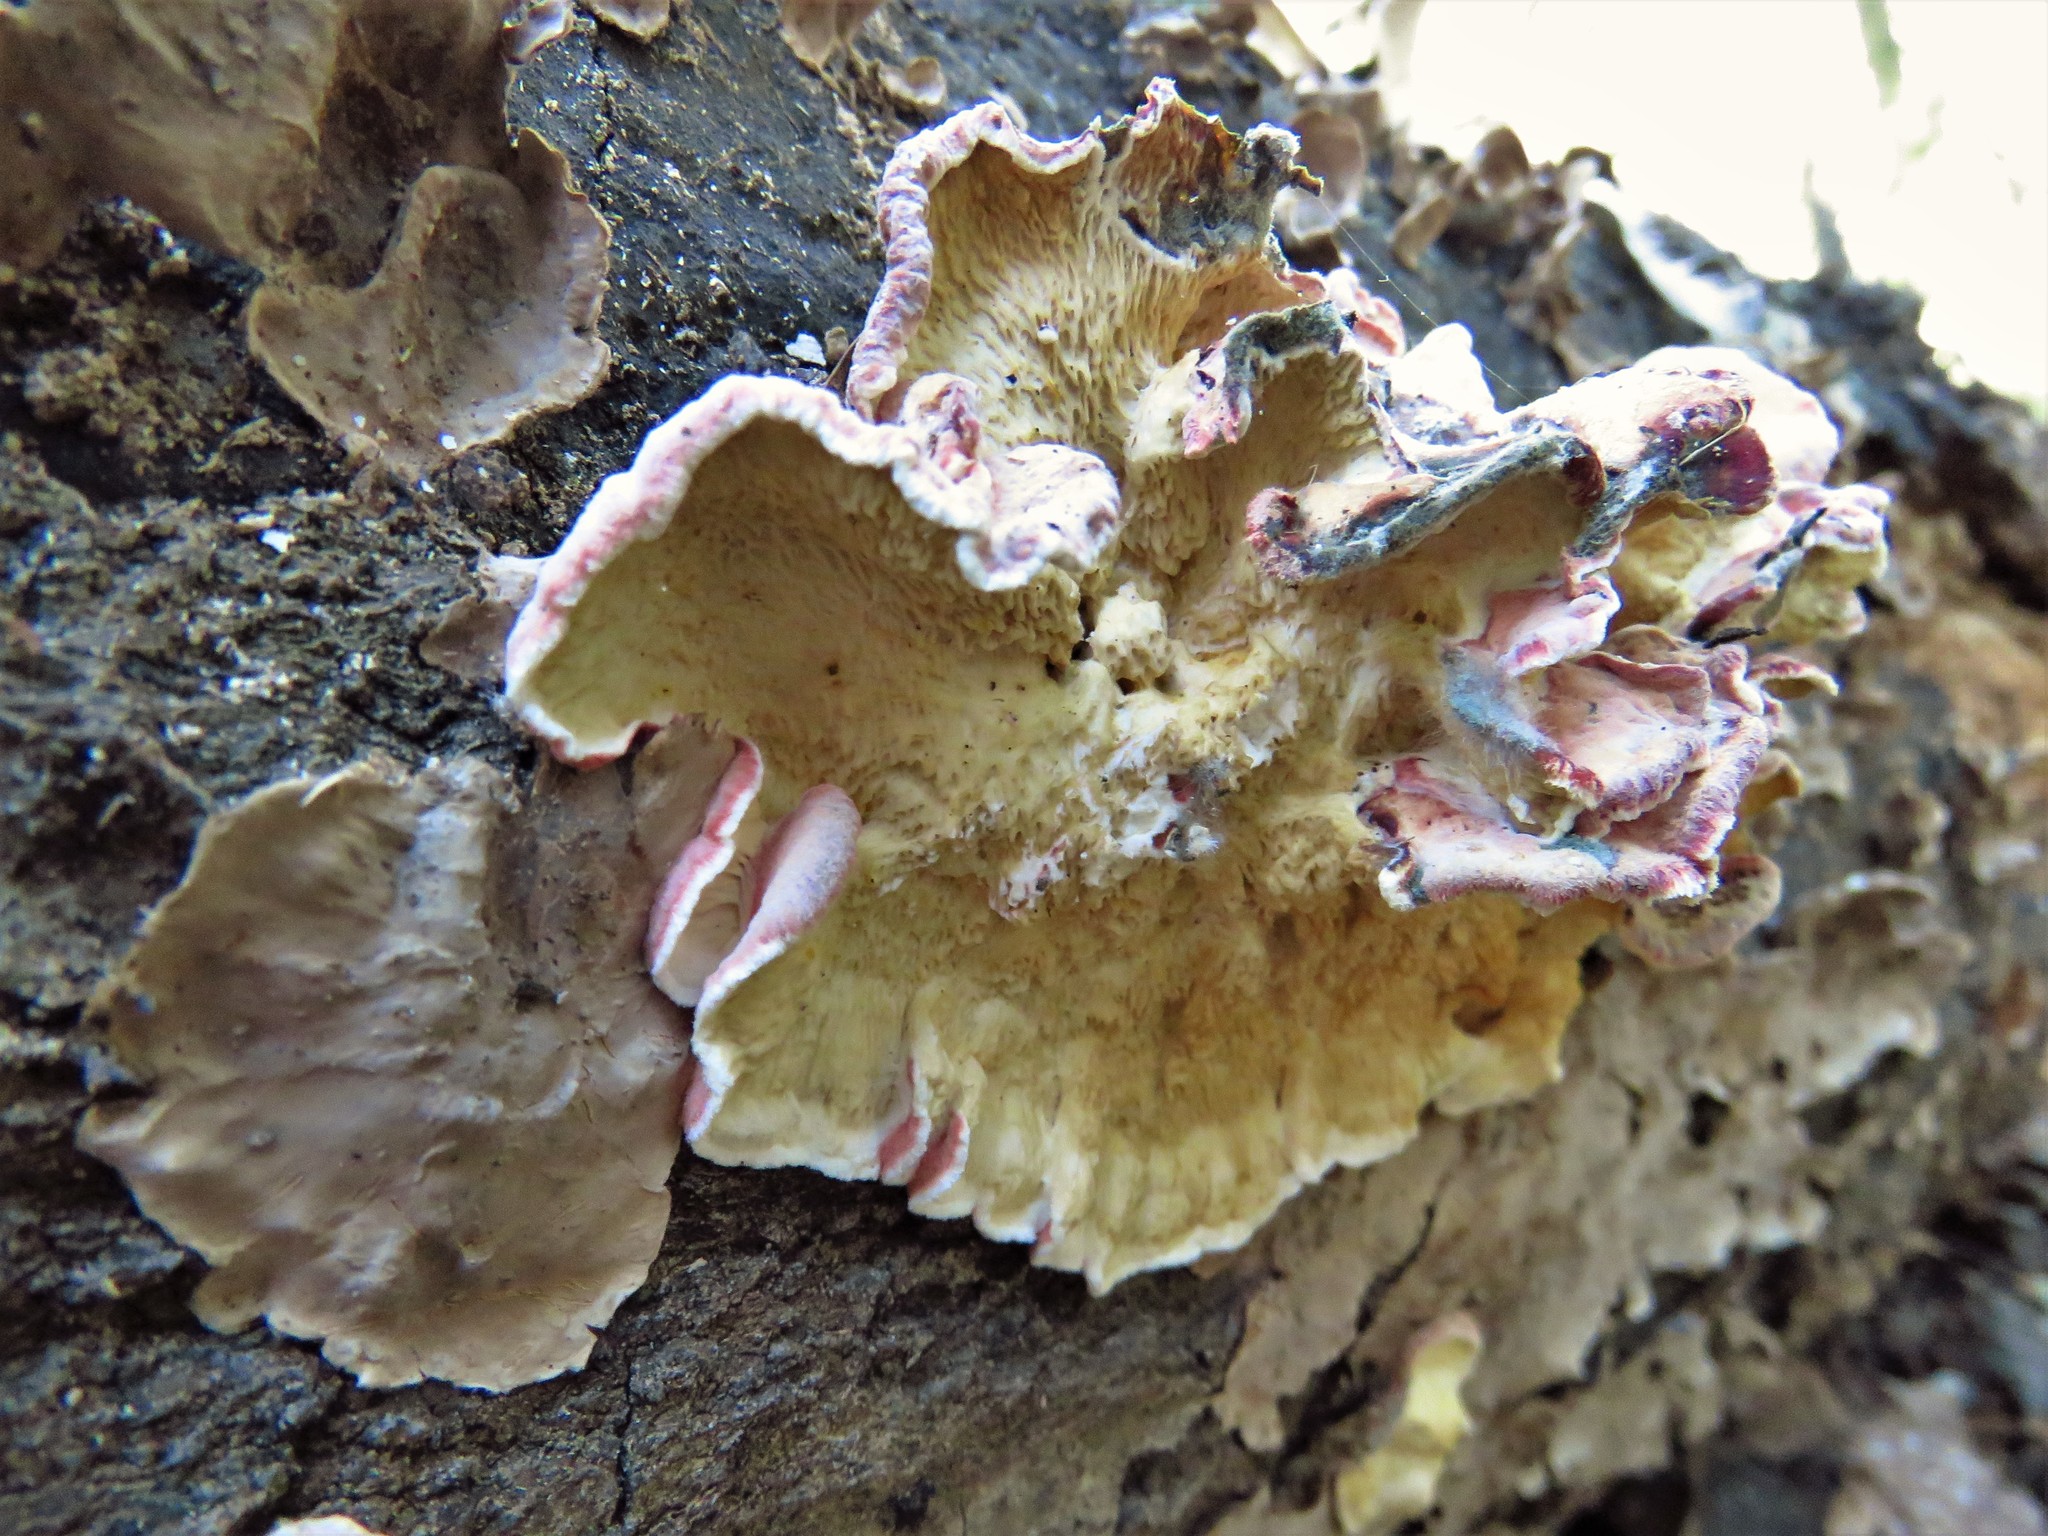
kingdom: Fungi
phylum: Basidiomycota
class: Agaricomycetes
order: Polyporales
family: Irpicaceae
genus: Byssomerulius
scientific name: Byssomerulius incarnatus
